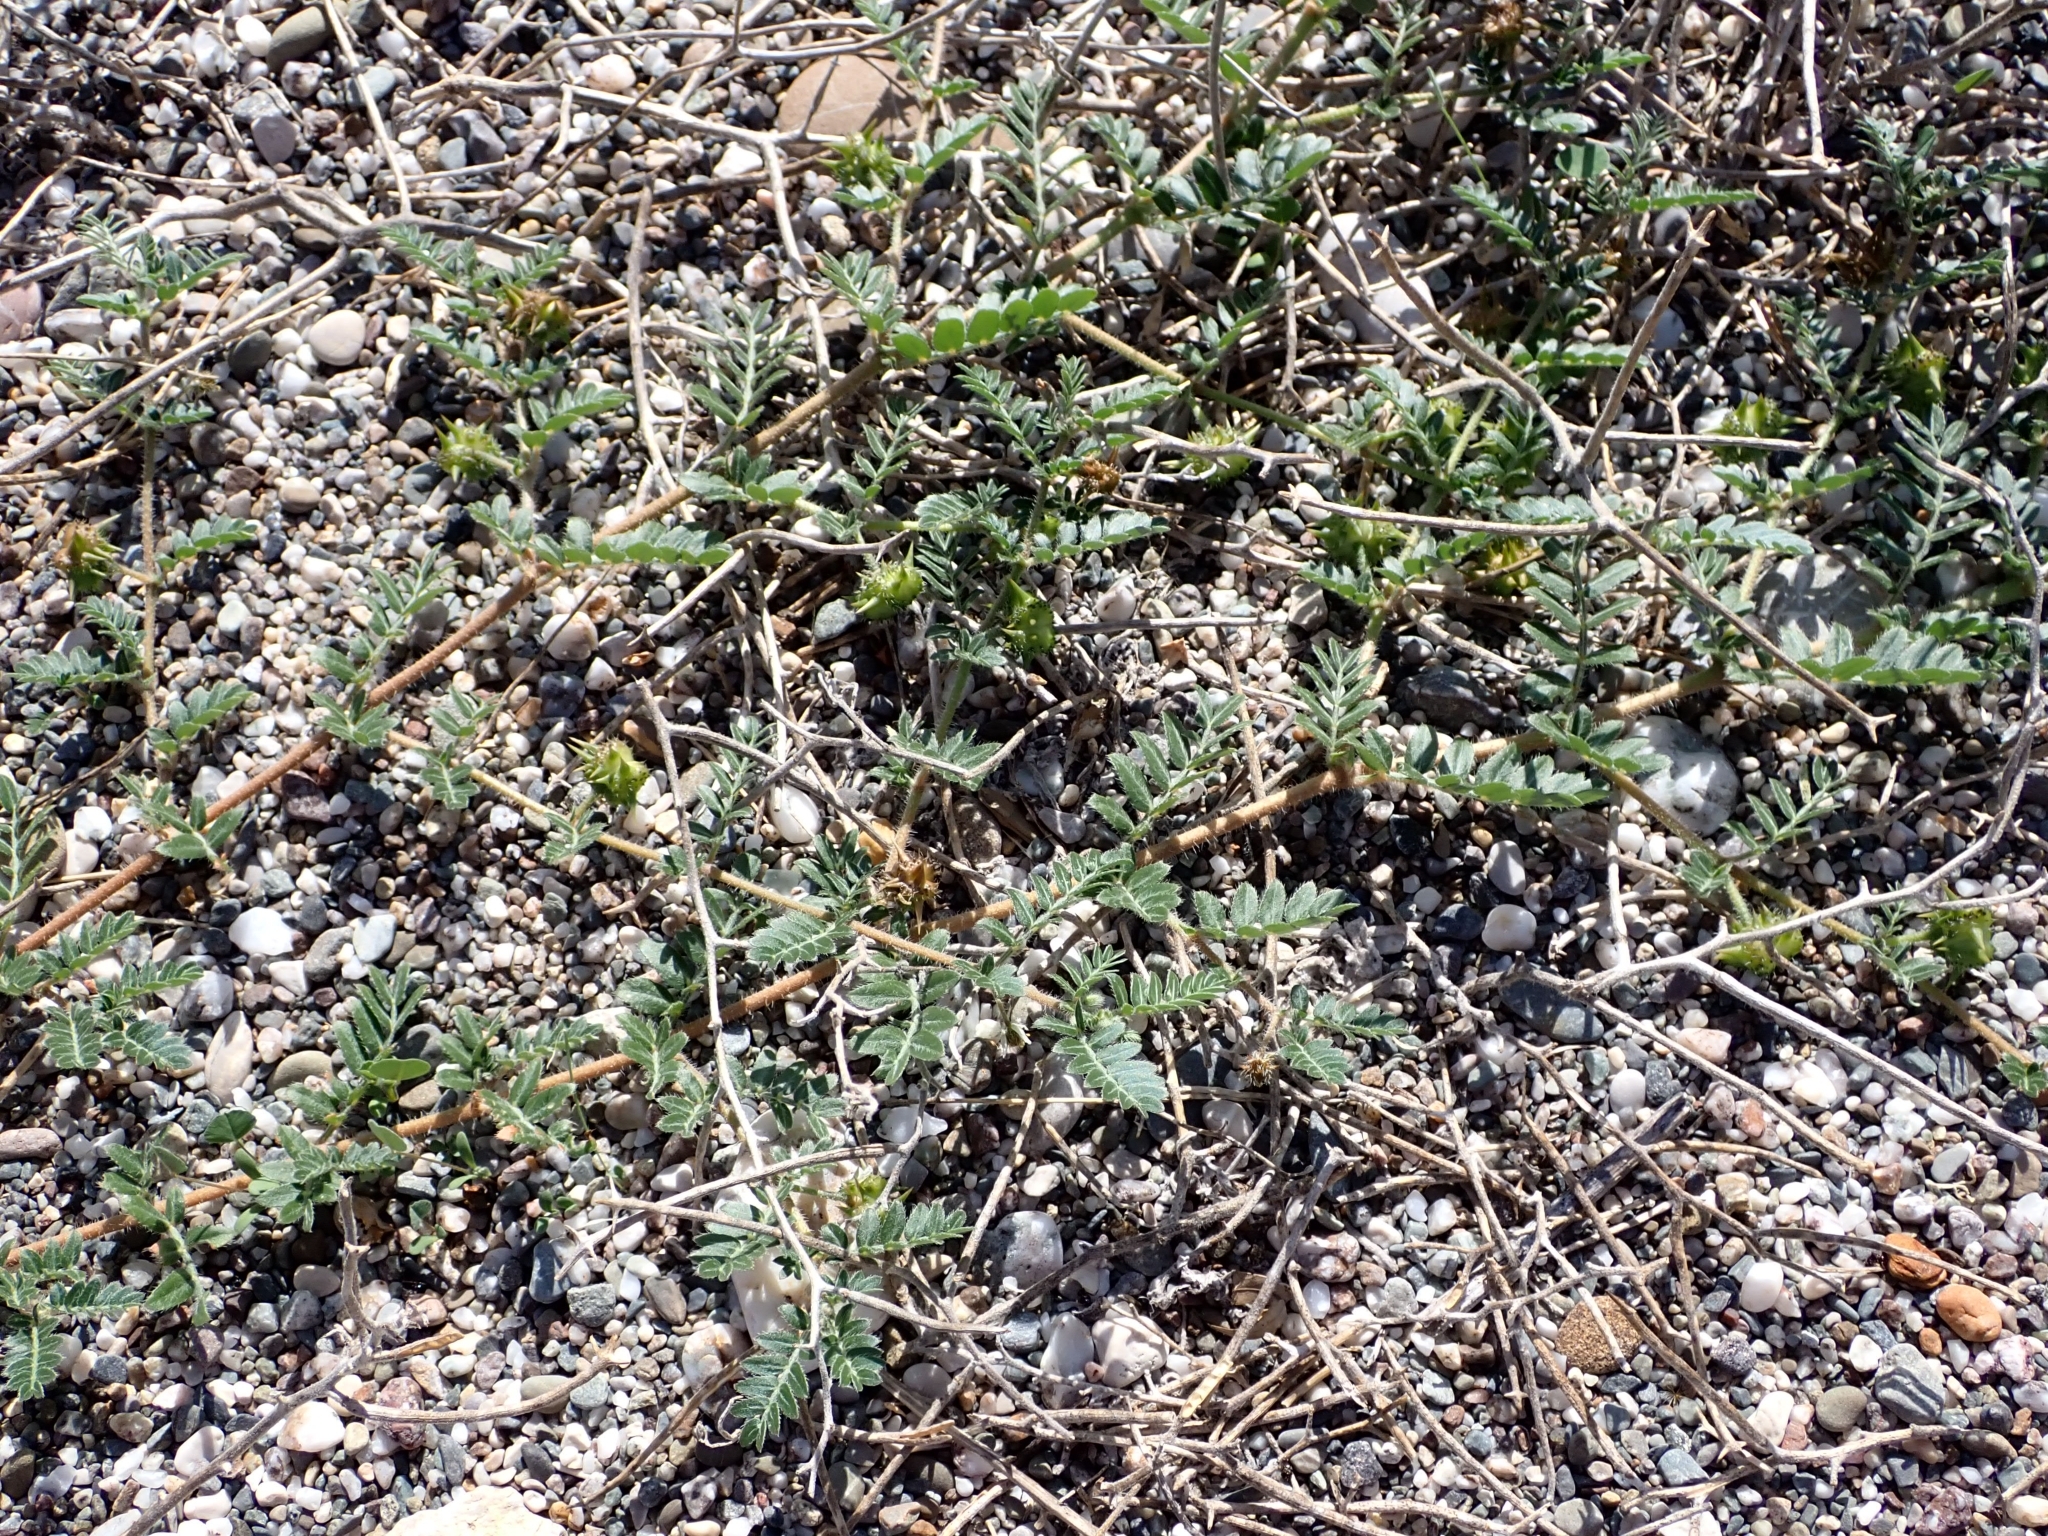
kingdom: Plantae
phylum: Tracheophyta
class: Magnoliopsida
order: Malpighiales
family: Euphorbiaceae
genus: Euphorbia
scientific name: Euphorbia maculata
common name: Spotted spurge
